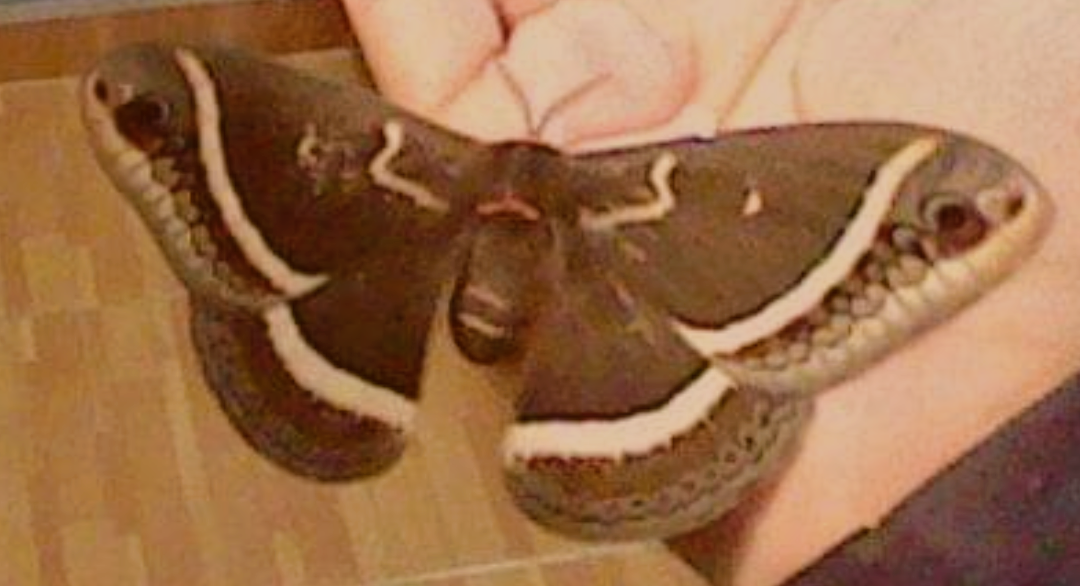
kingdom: Animalia
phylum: Arthropoda
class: Insecta
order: Lepidoptera
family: Saturniidae
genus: Eupackardia
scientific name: Eupackardia calleta
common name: Calleta silkmoth
